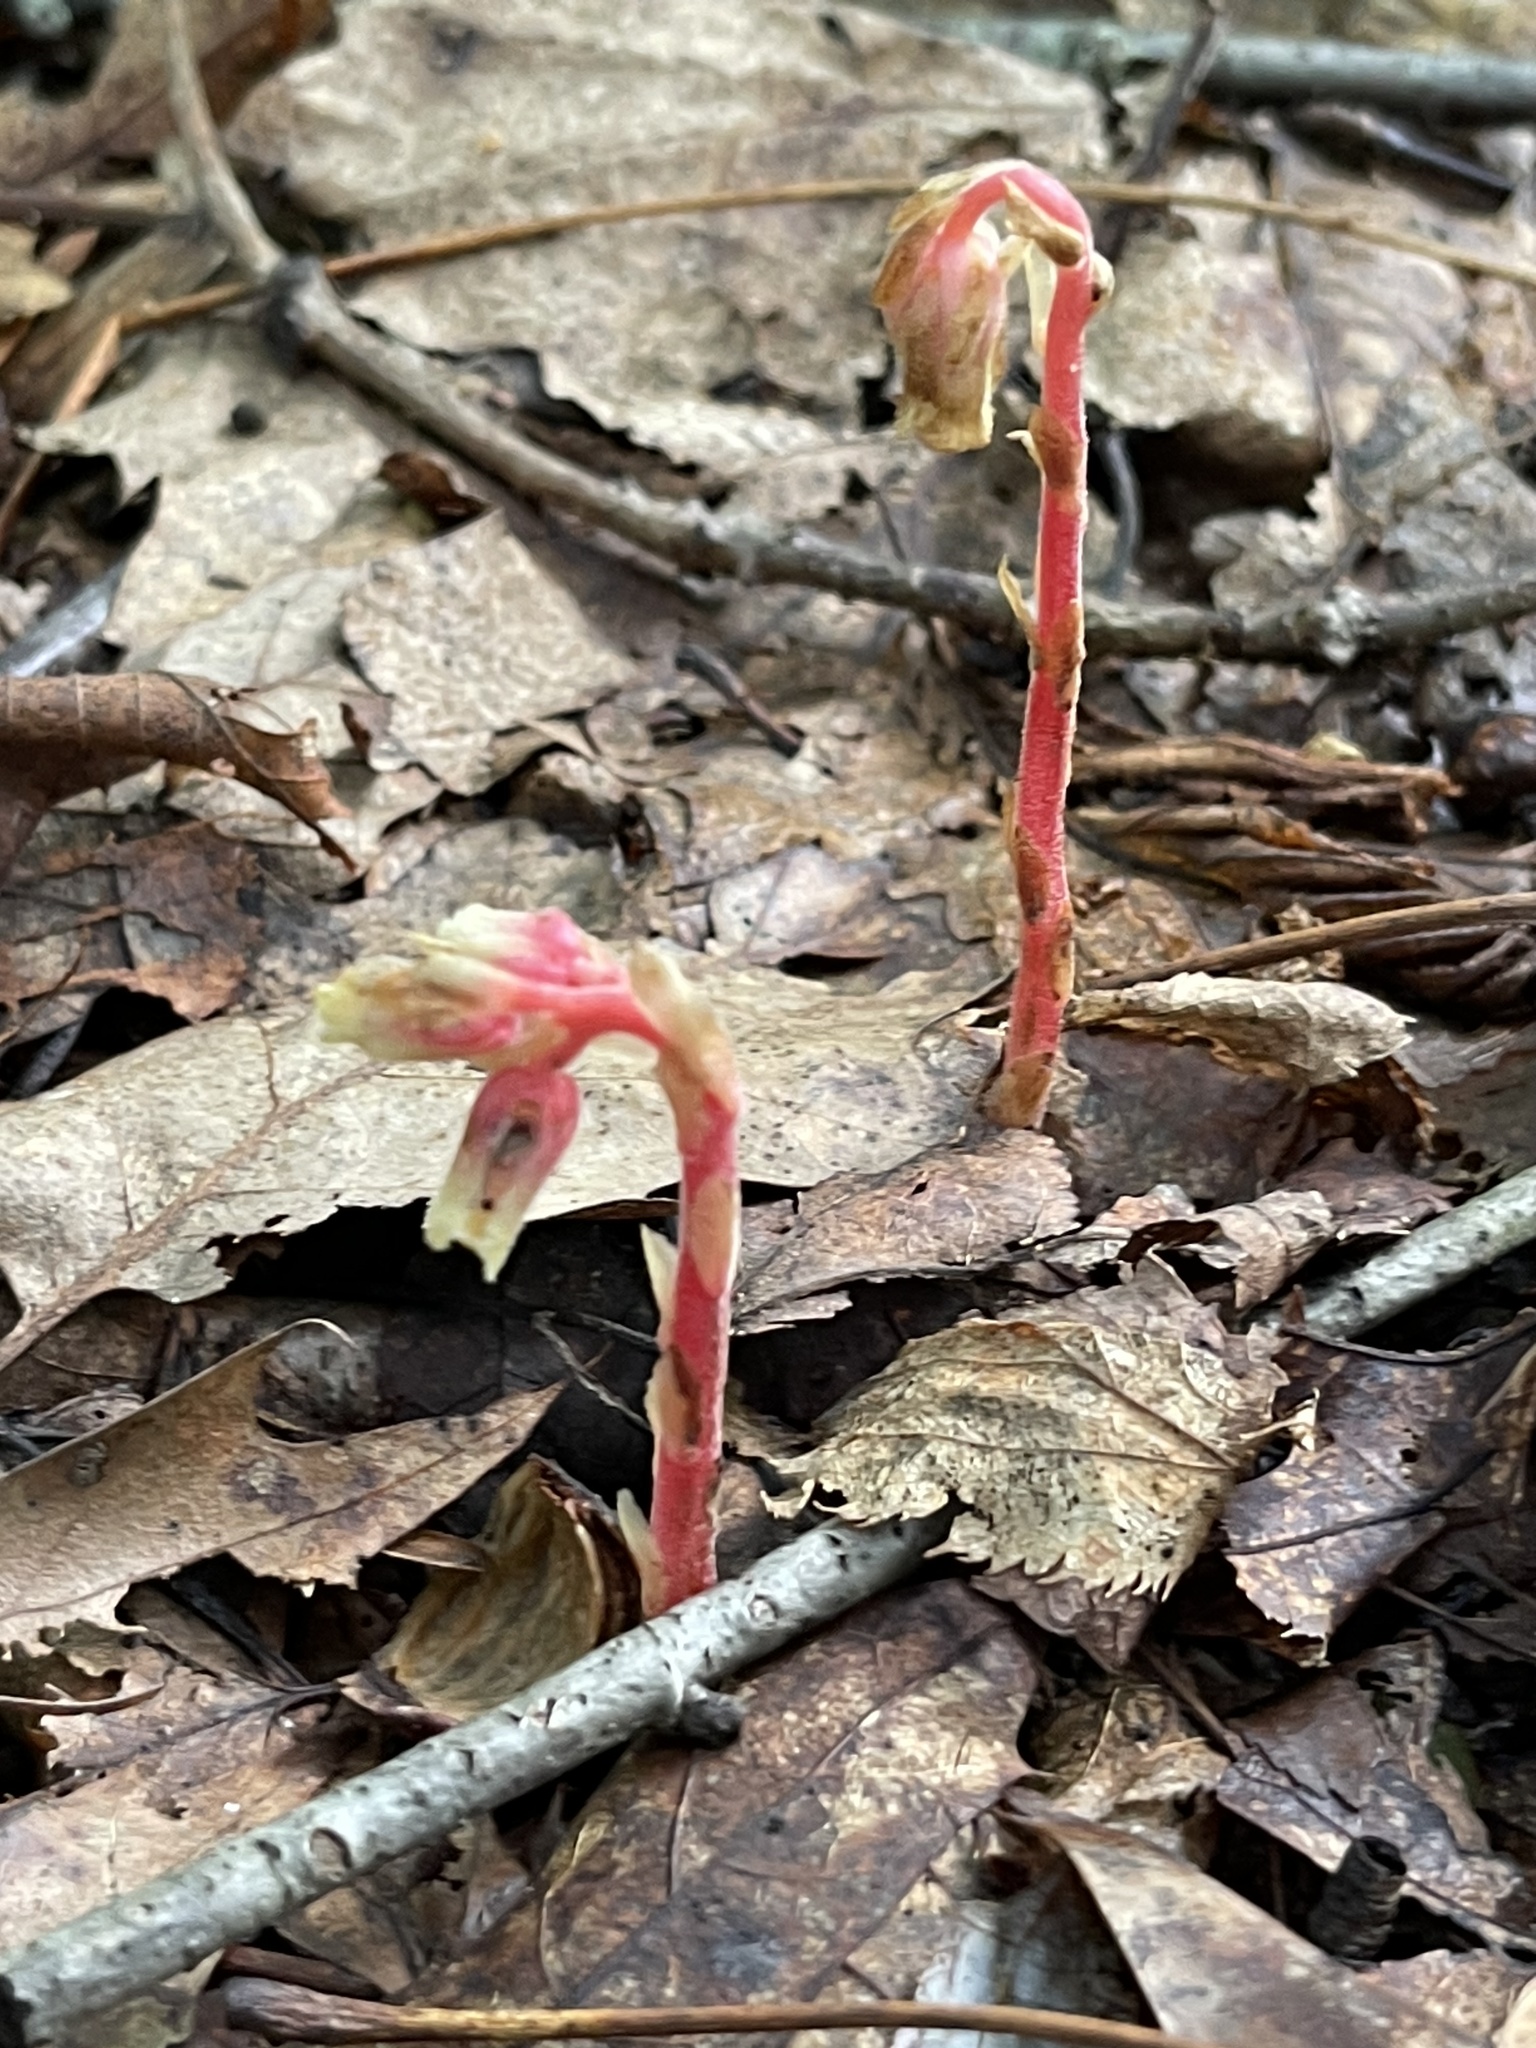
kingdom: Plantae
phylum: Tracheophyta
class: Magnoliopsida
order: Ericales
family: Ericaceae
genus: Hypopitys
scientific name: Hypopitys monotropa
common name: Yellow bird's-nest
